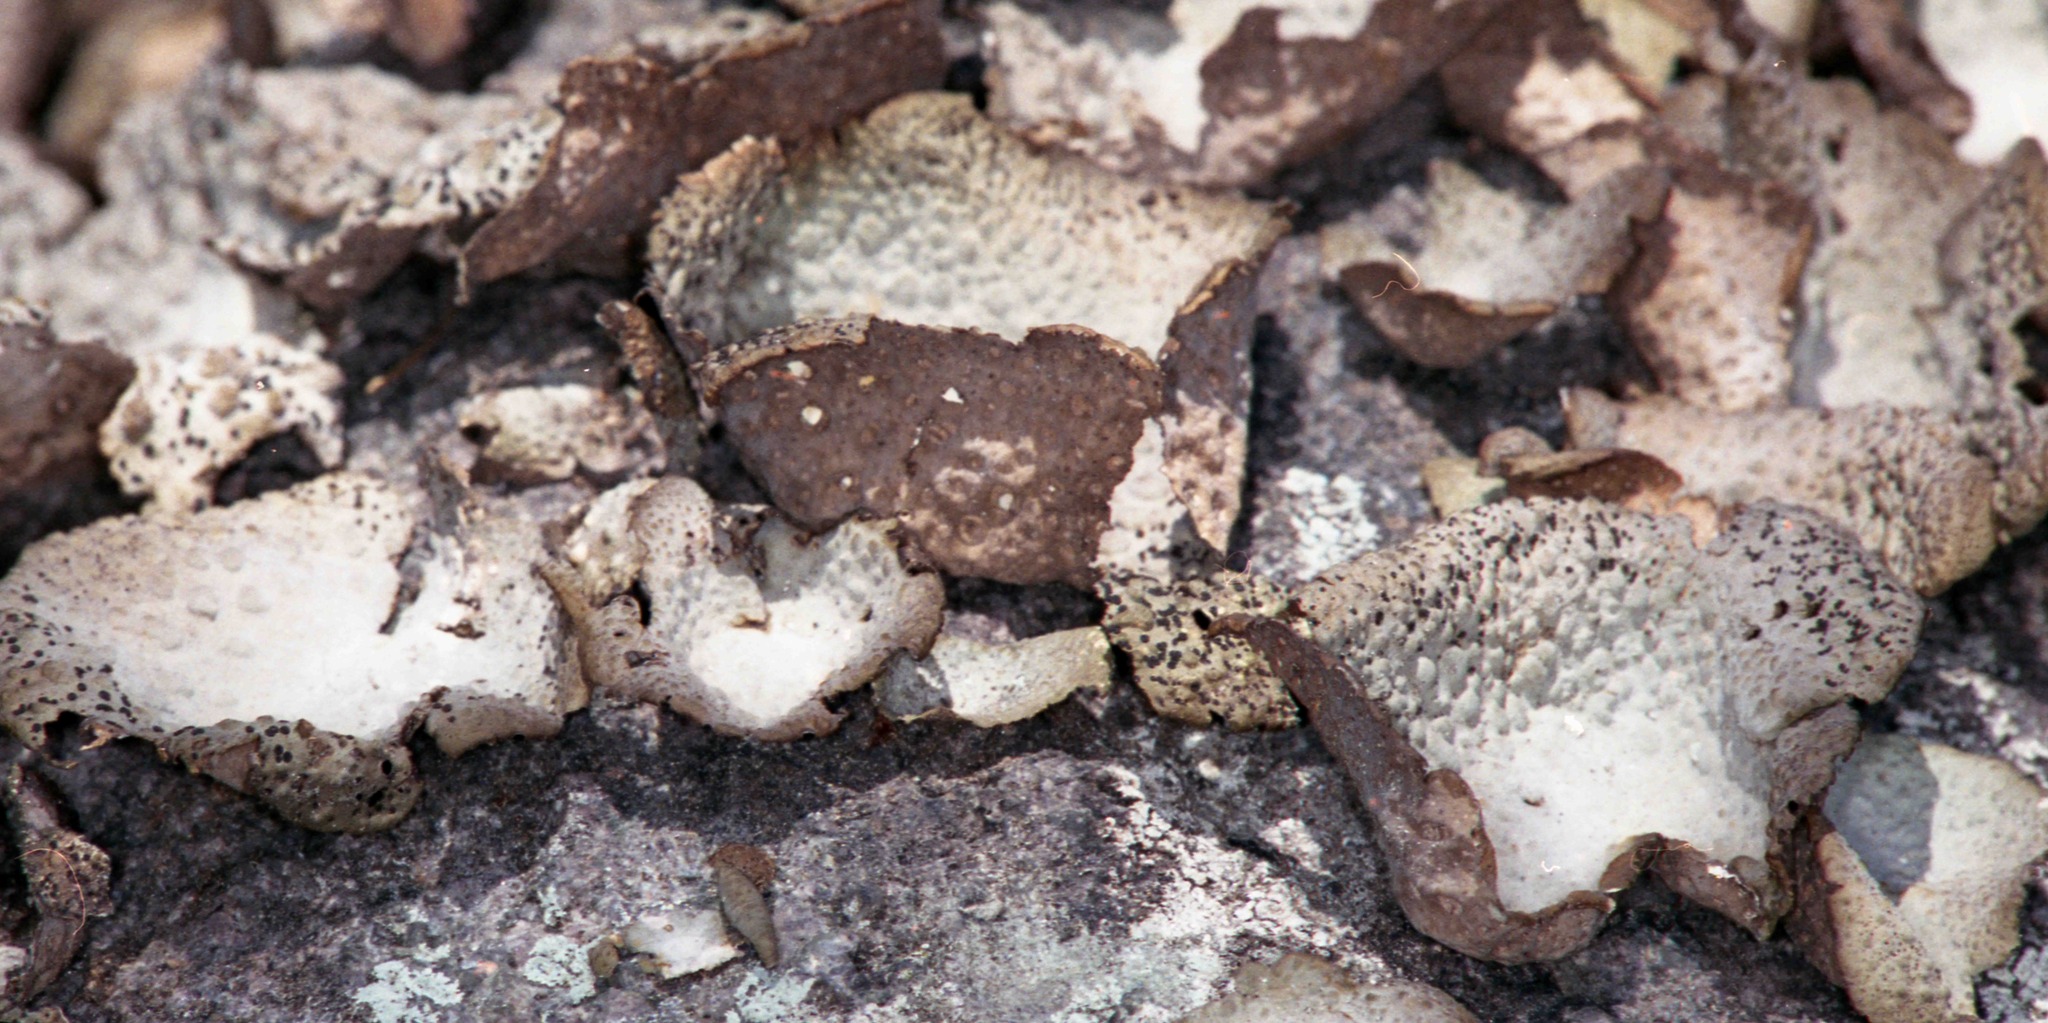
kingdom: Fungi
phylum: Ascomycota
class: Lecanoromycetes
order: Umbilicariales
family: Umbilicariaceae
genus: Lasallia
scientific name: Lasallia papulosa
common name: Common toadskin lichen
